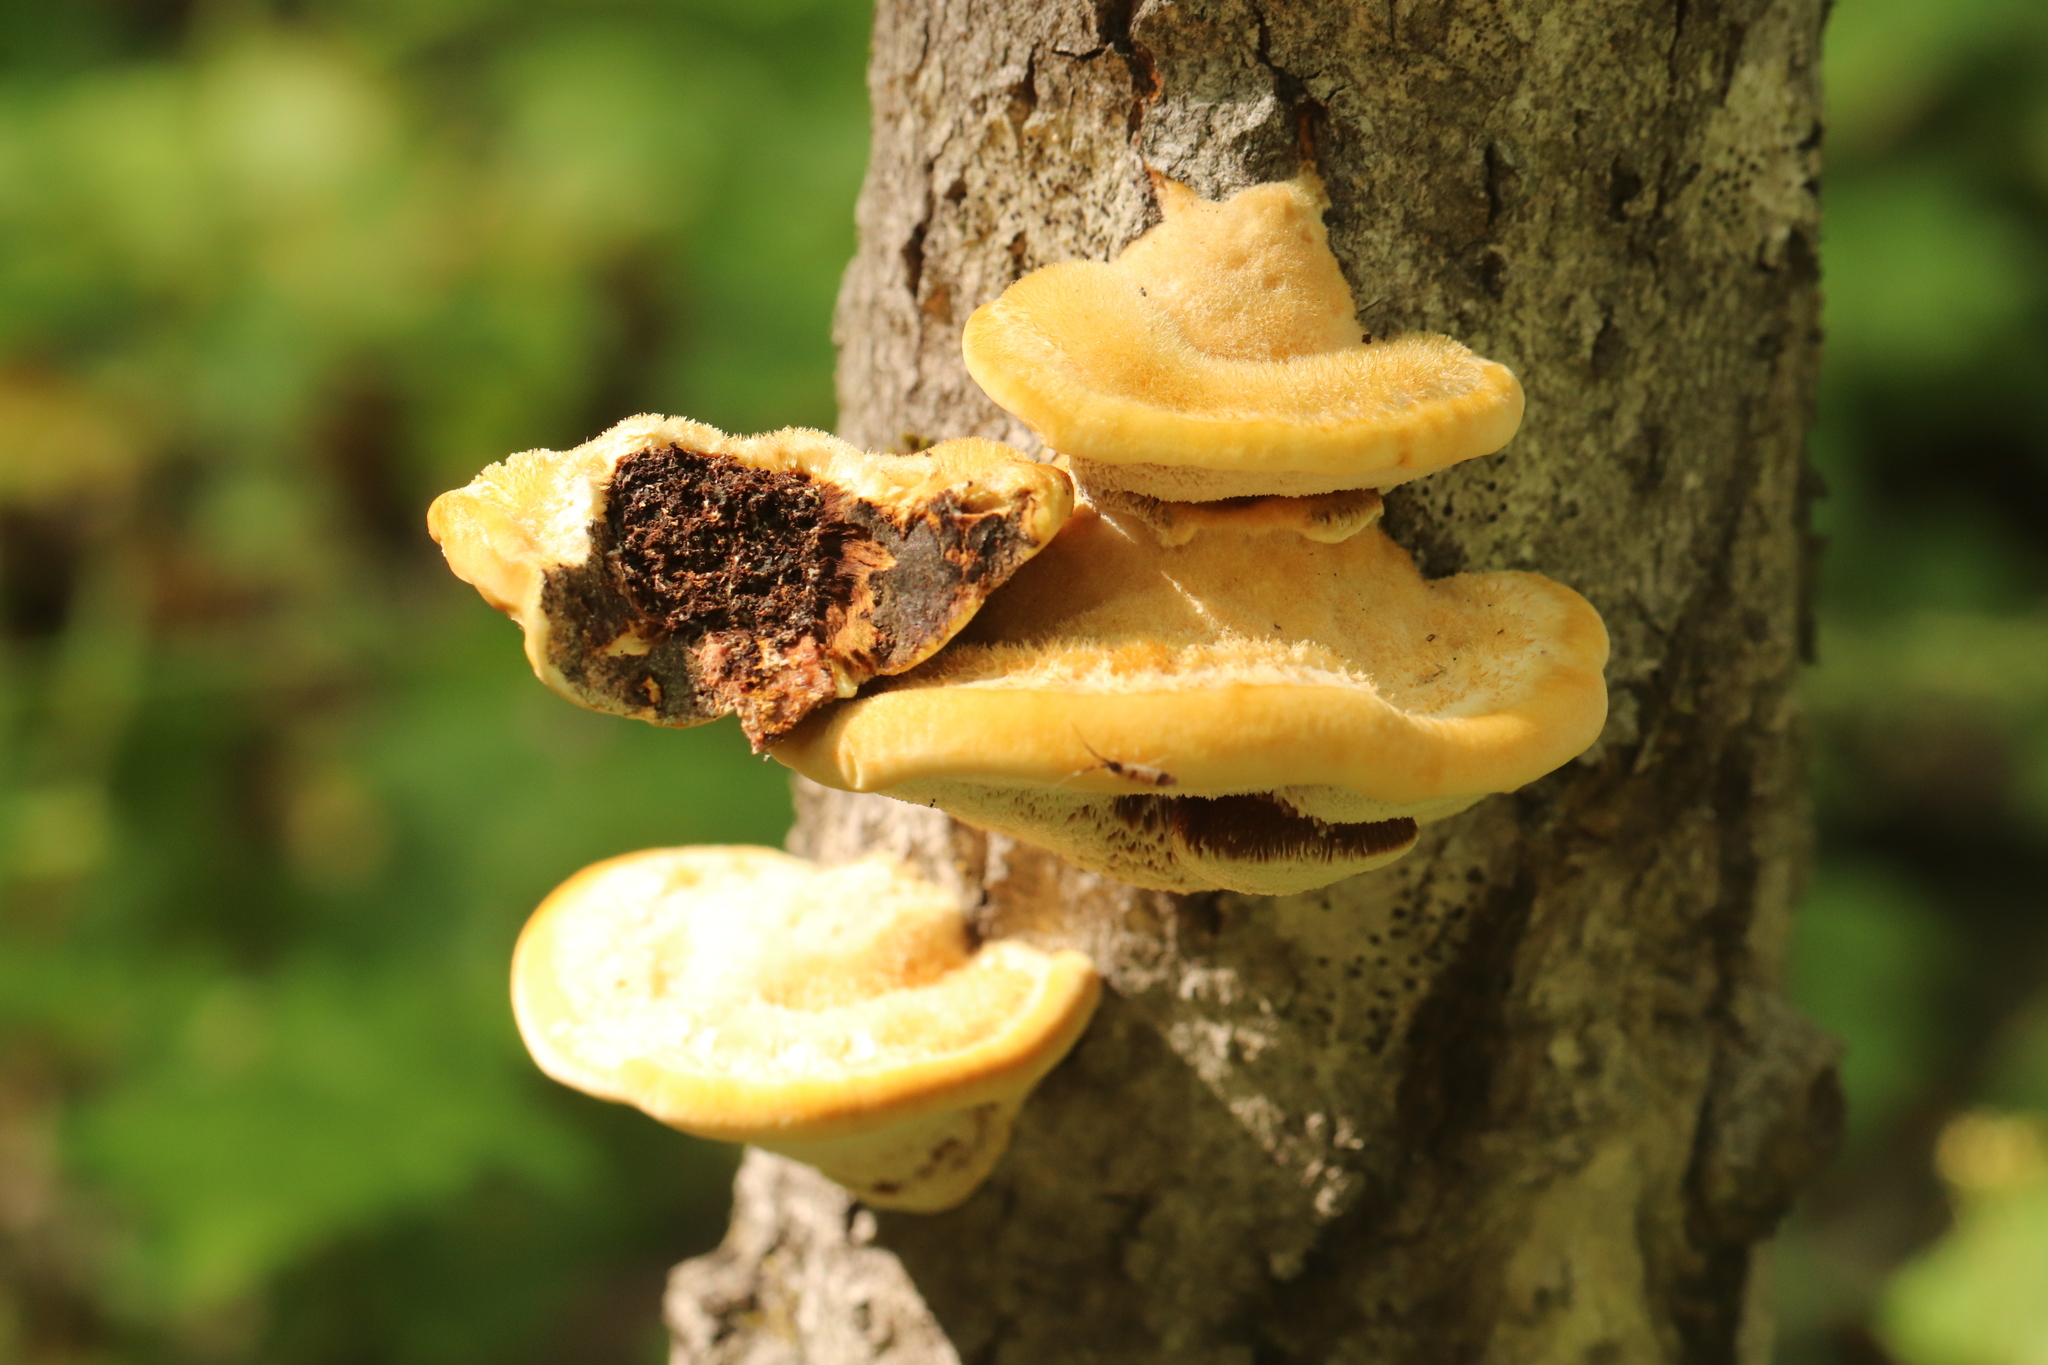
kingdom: Fungi
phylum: Basidiomycota
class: Agaricomycetes
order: Hymenochaetales
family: Hymenochaetaceae
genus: Inocutis
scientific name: Inocutis rheades
